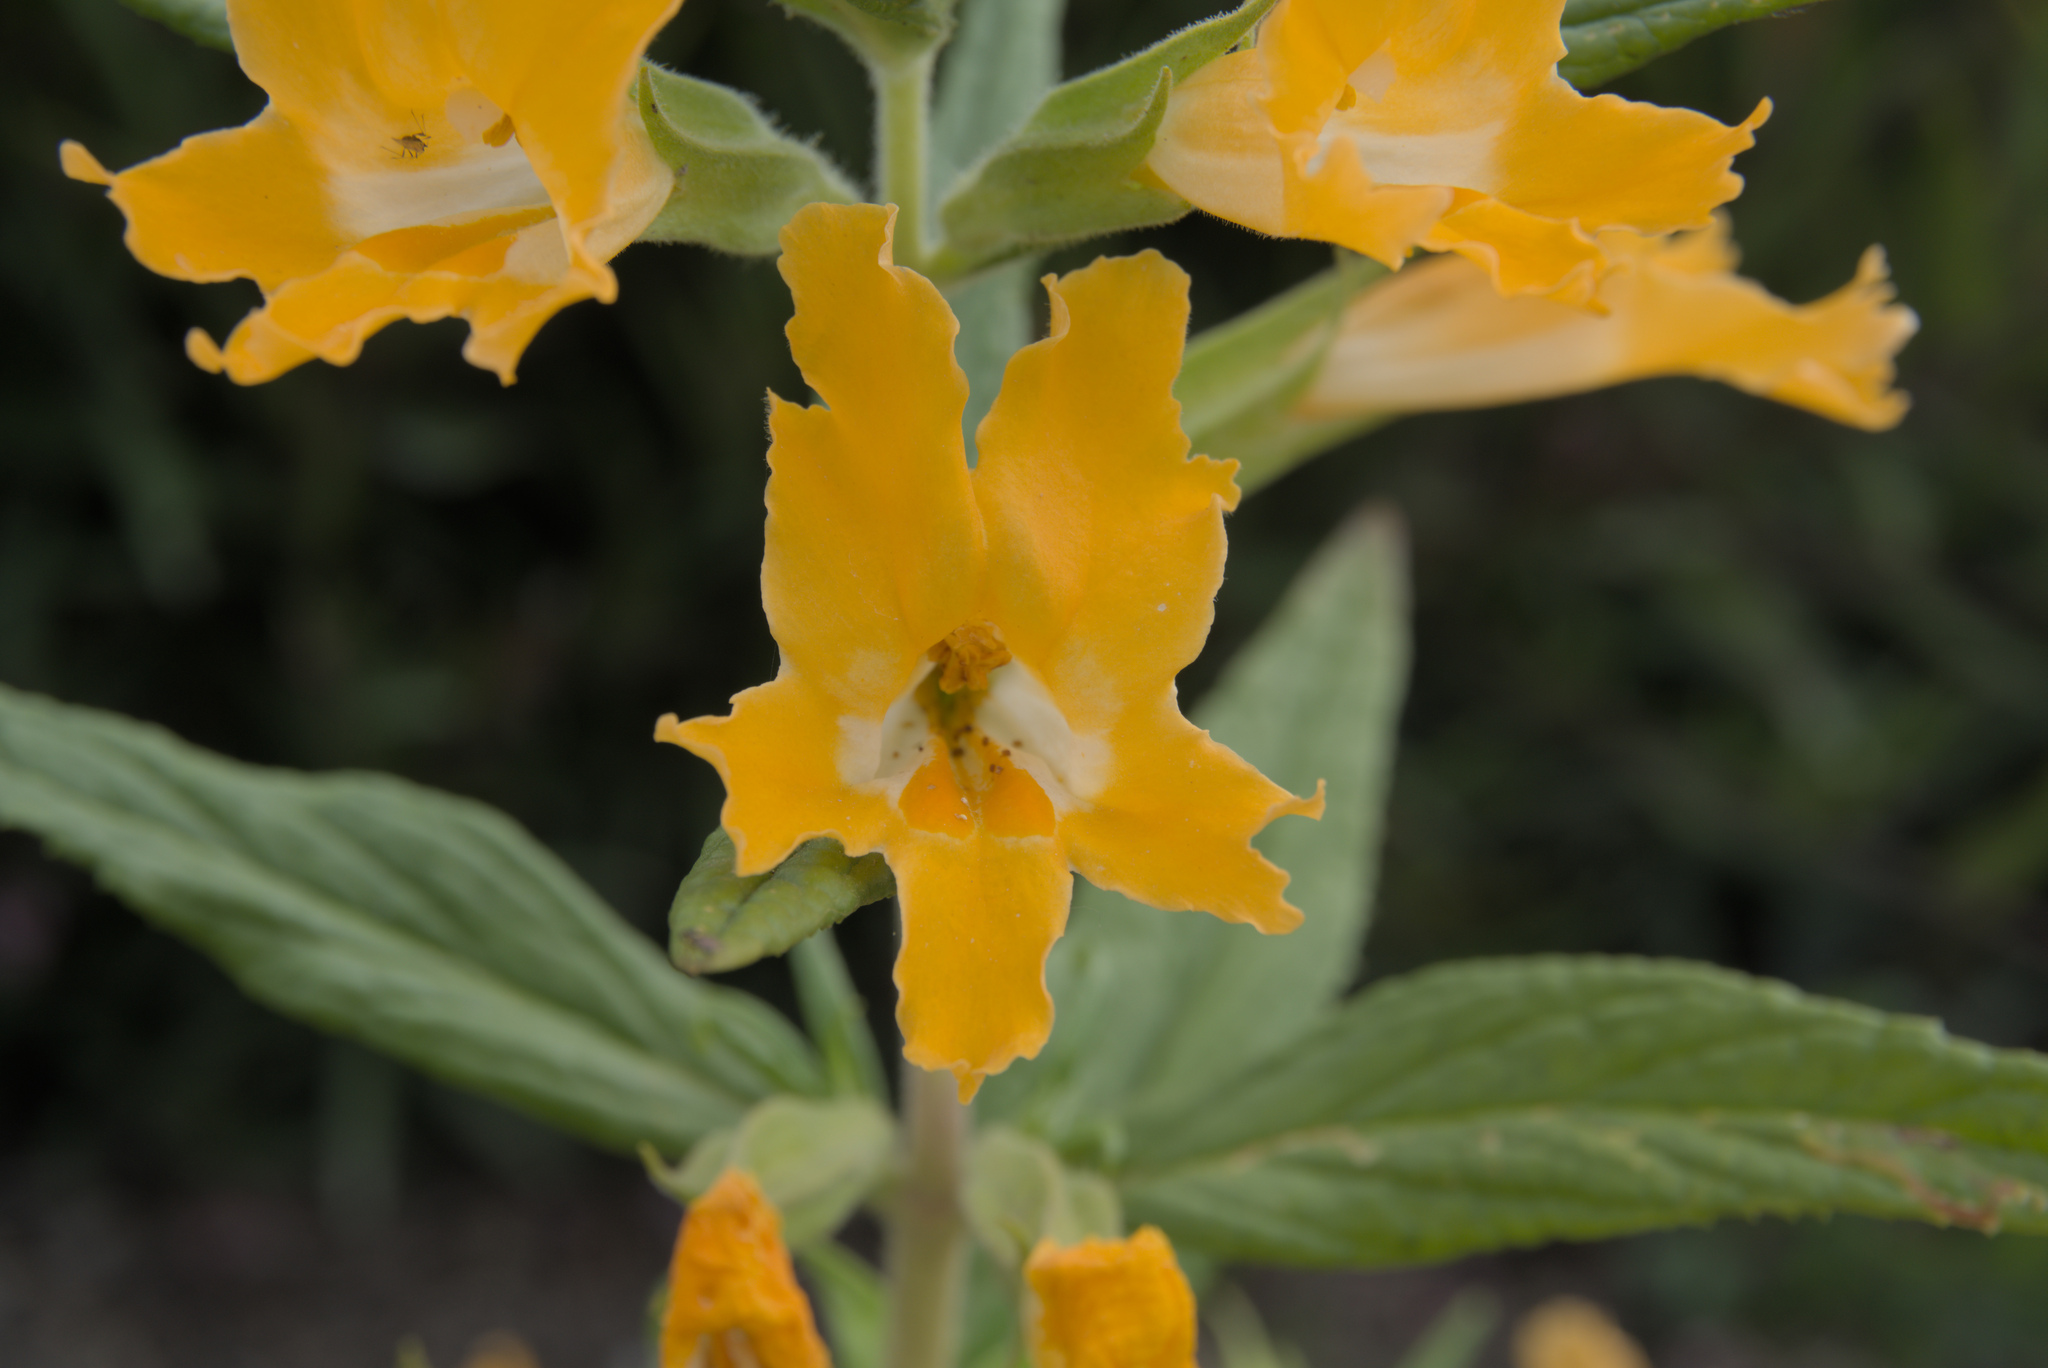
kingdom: Plantae
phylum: Tracheophyta
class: Magnoliopsida
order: Lamiales
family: Phrymaceae
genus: Diplacus
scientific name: Diplacus longiflorus
